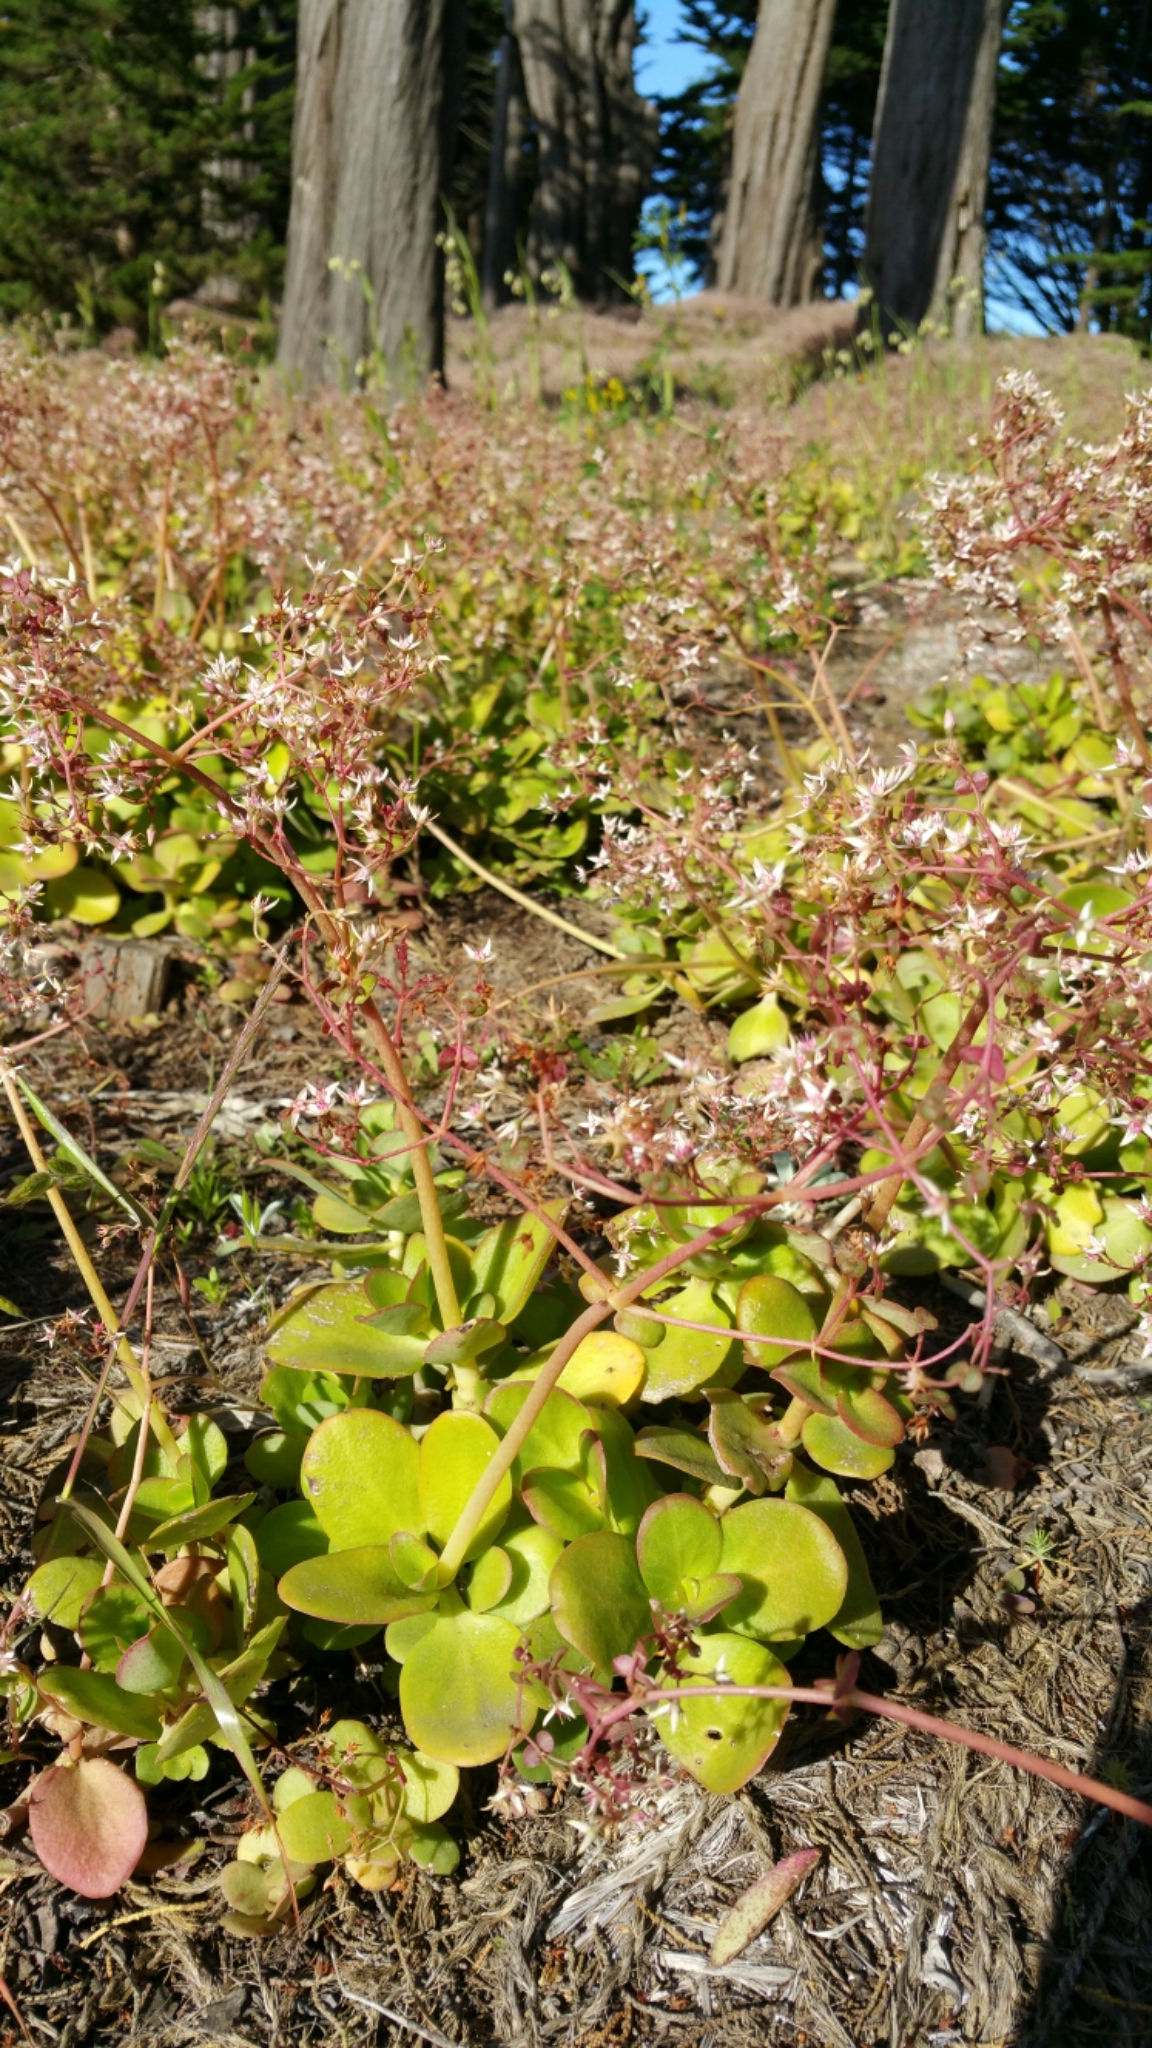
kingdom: Plantae
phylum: Tracheophyta
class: Magnoliopsida
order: Saxifragales
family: Crassulaceae
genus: Crassula
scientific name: Crassula multicava
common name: Cape province pygmyweed
